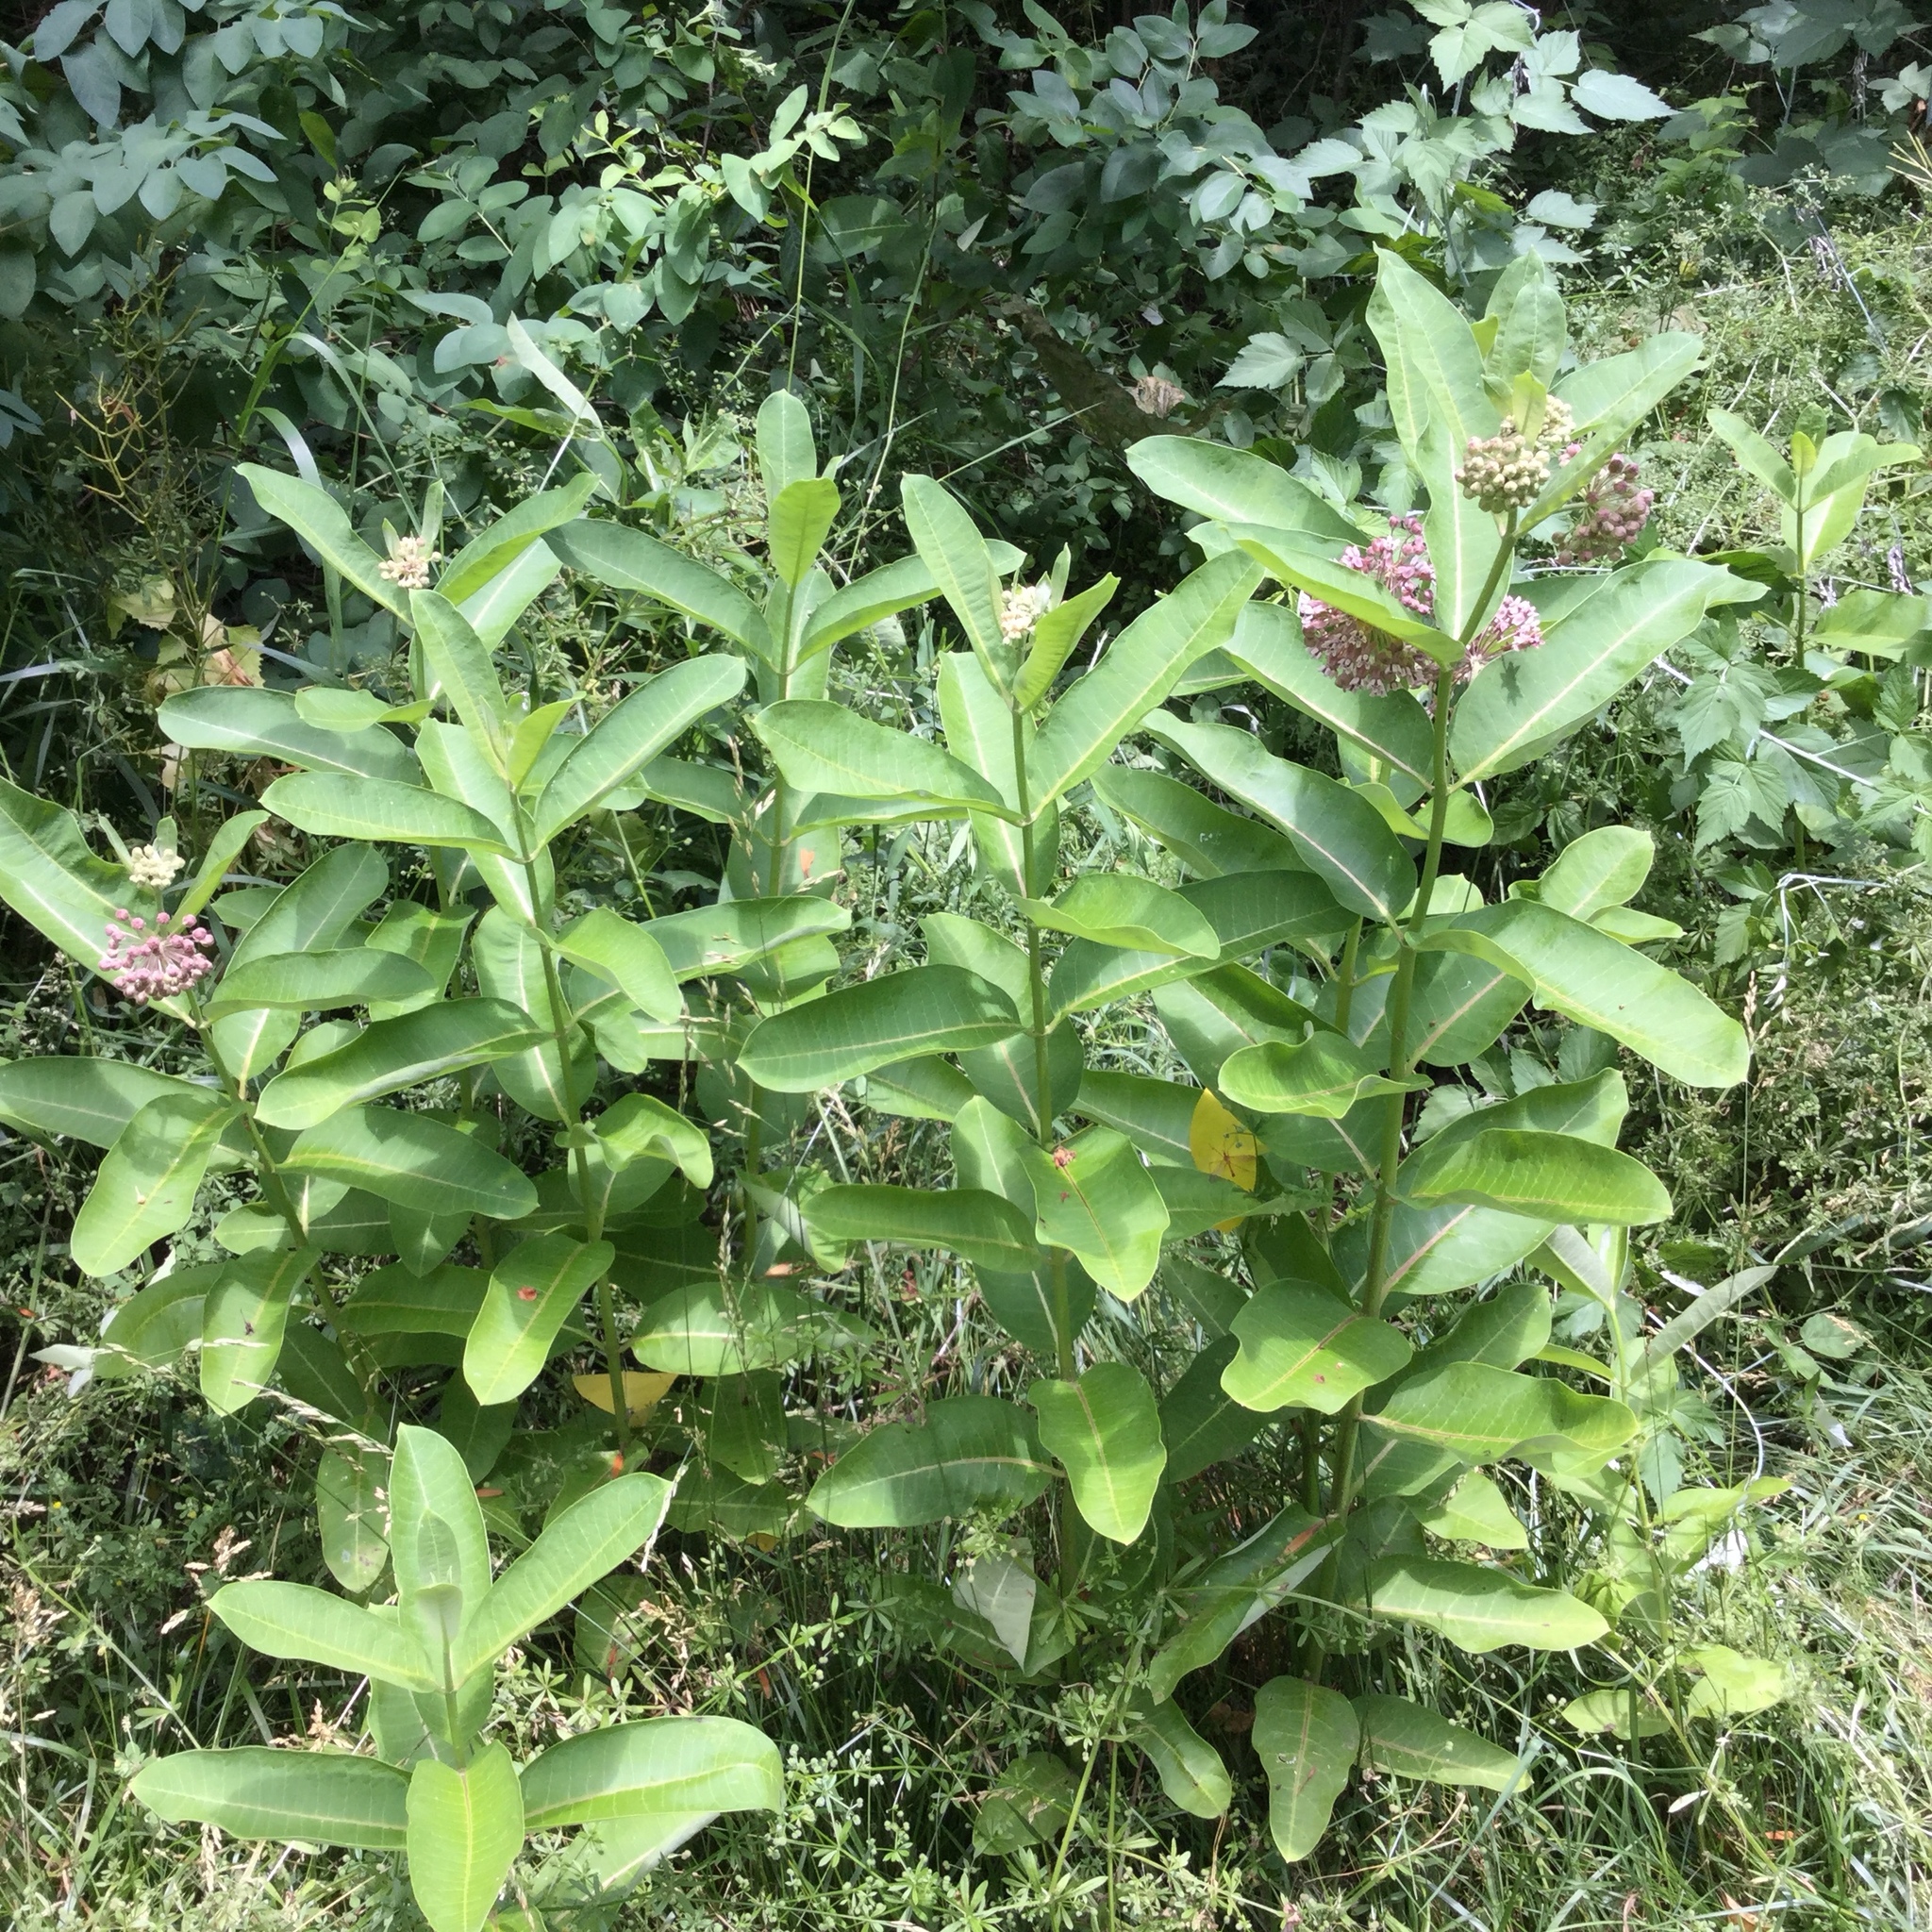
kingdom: Plantae
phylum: Tracheophyta
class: Magnoliopsida
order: Gentianales
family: Apocynaceae
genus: Asclepias
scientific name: Asclepias syriaca
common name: Common milkweed
